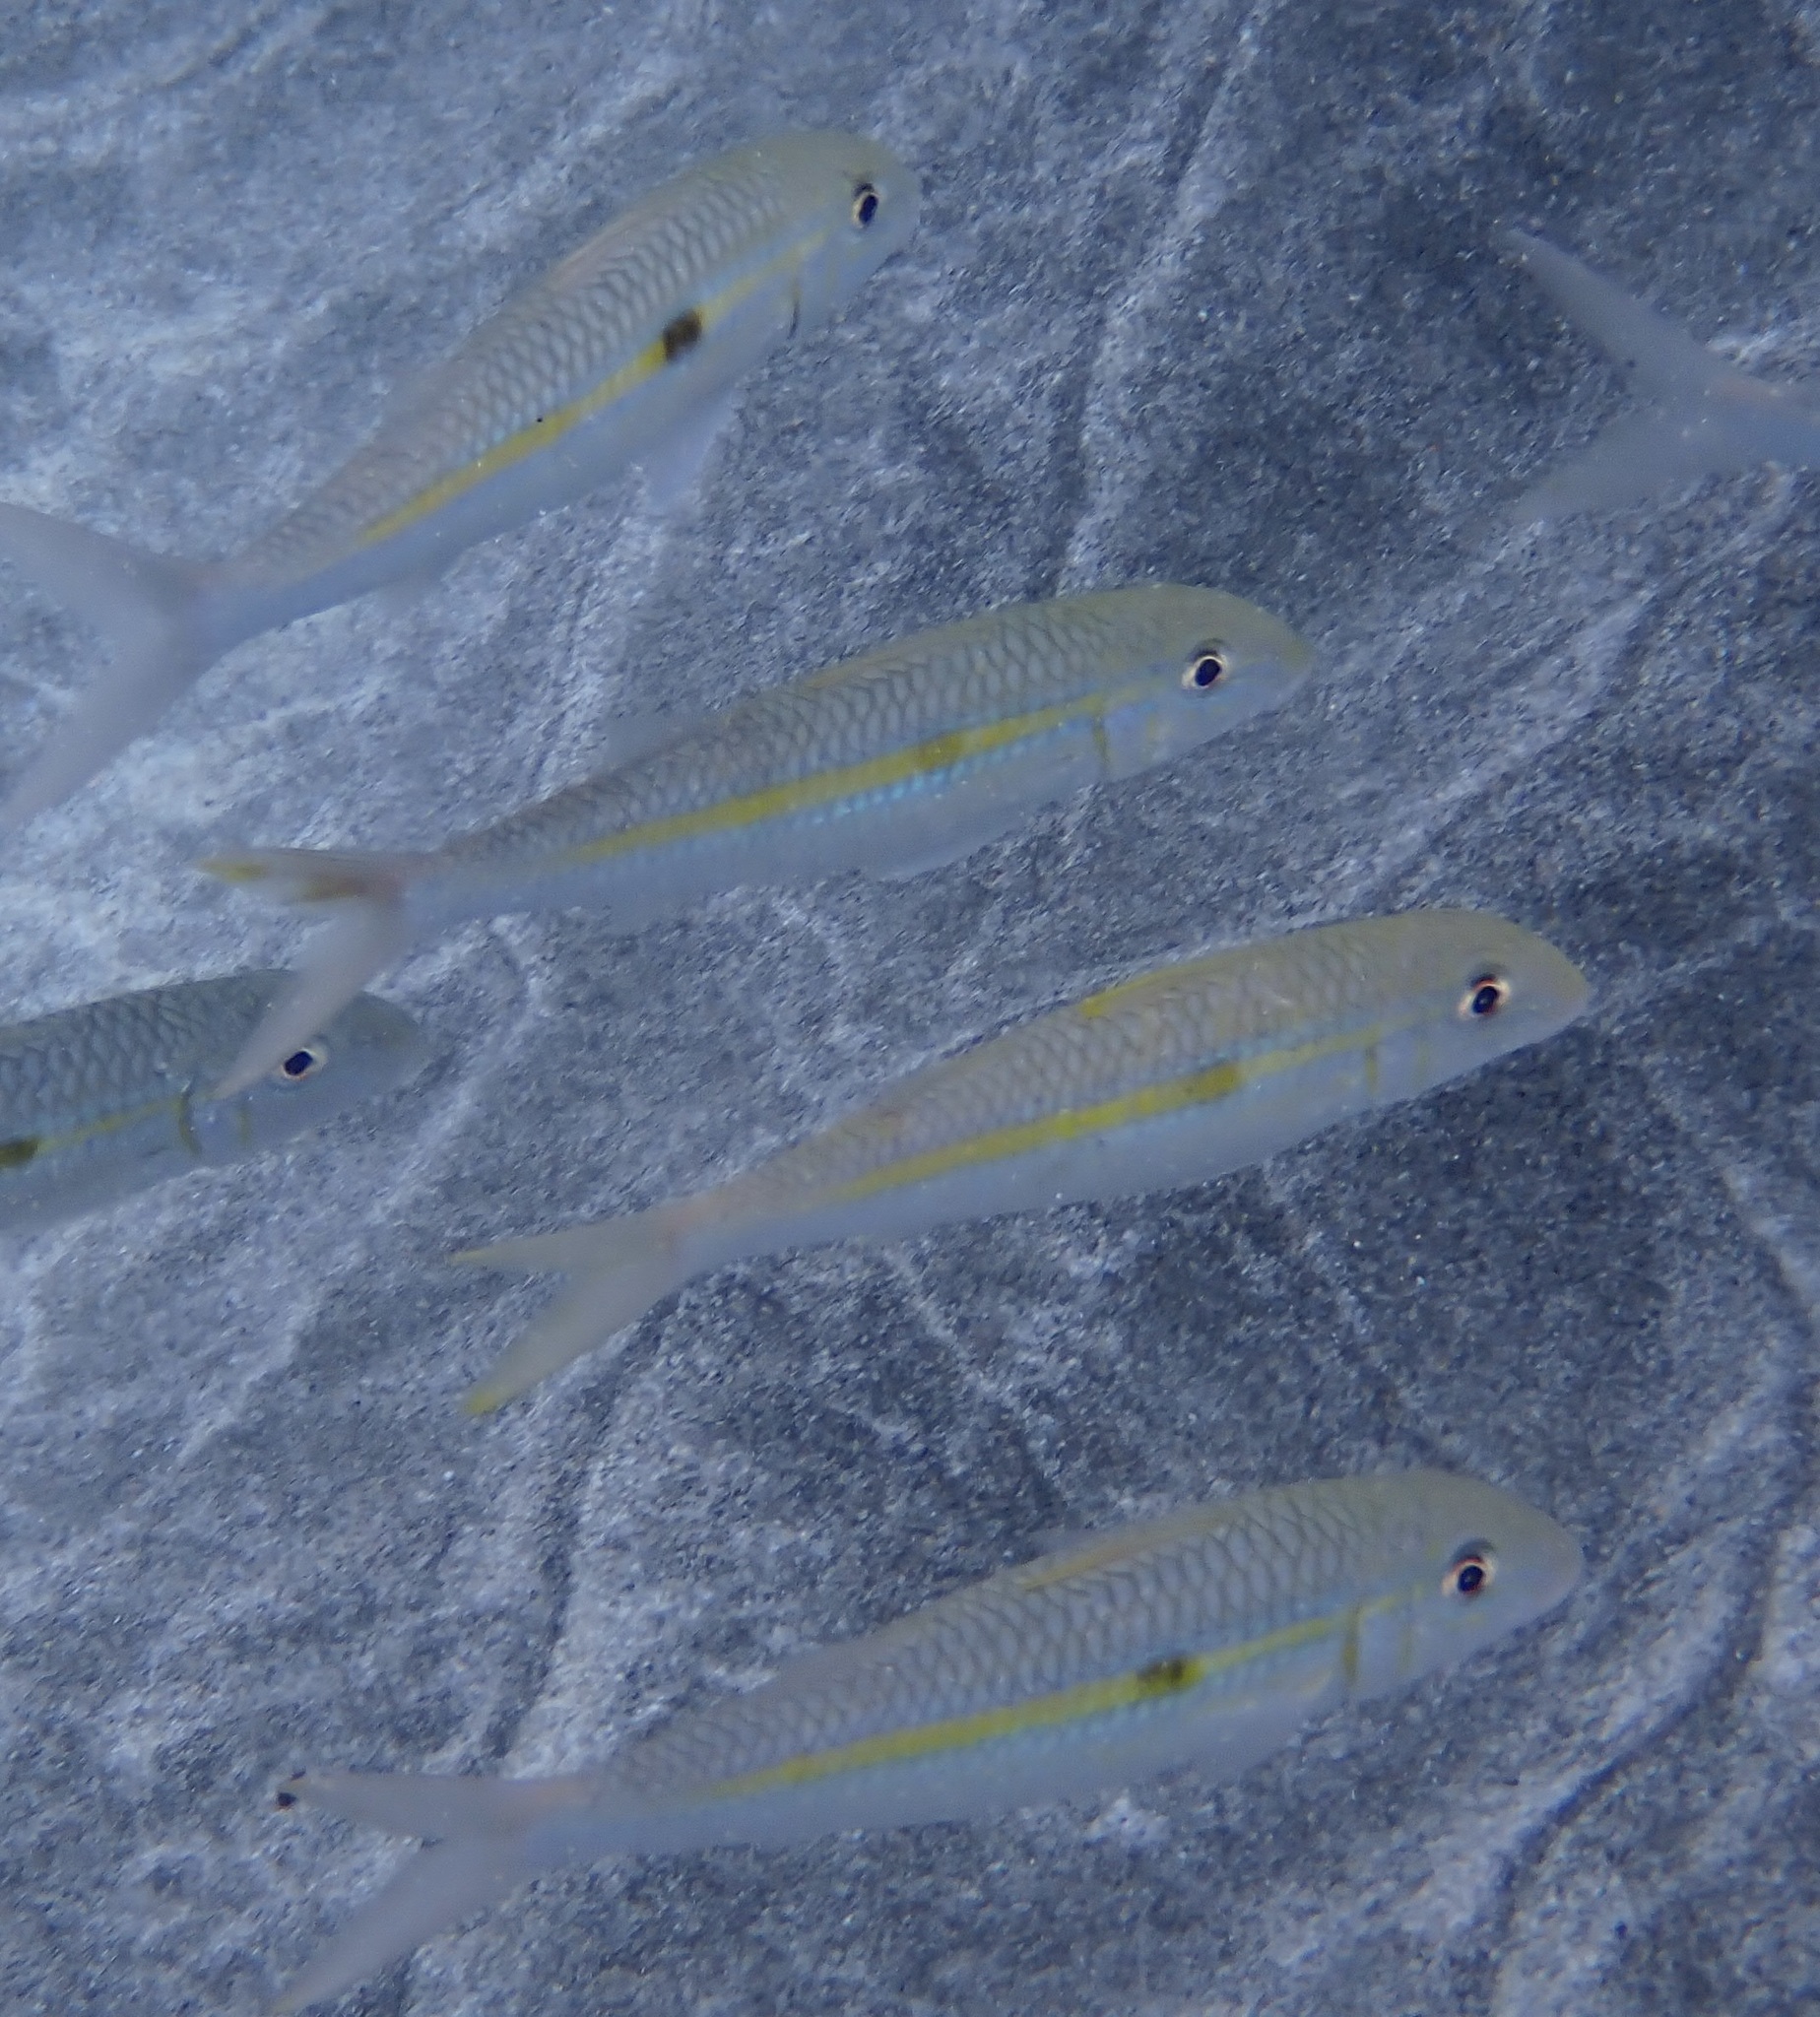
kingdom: Animalia
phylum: Chordata
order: Perciformes
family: Mullidae
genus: Mulloidichthys
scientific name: Mulloidichthys flavolineatus
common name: Yellowstripe goatfish
